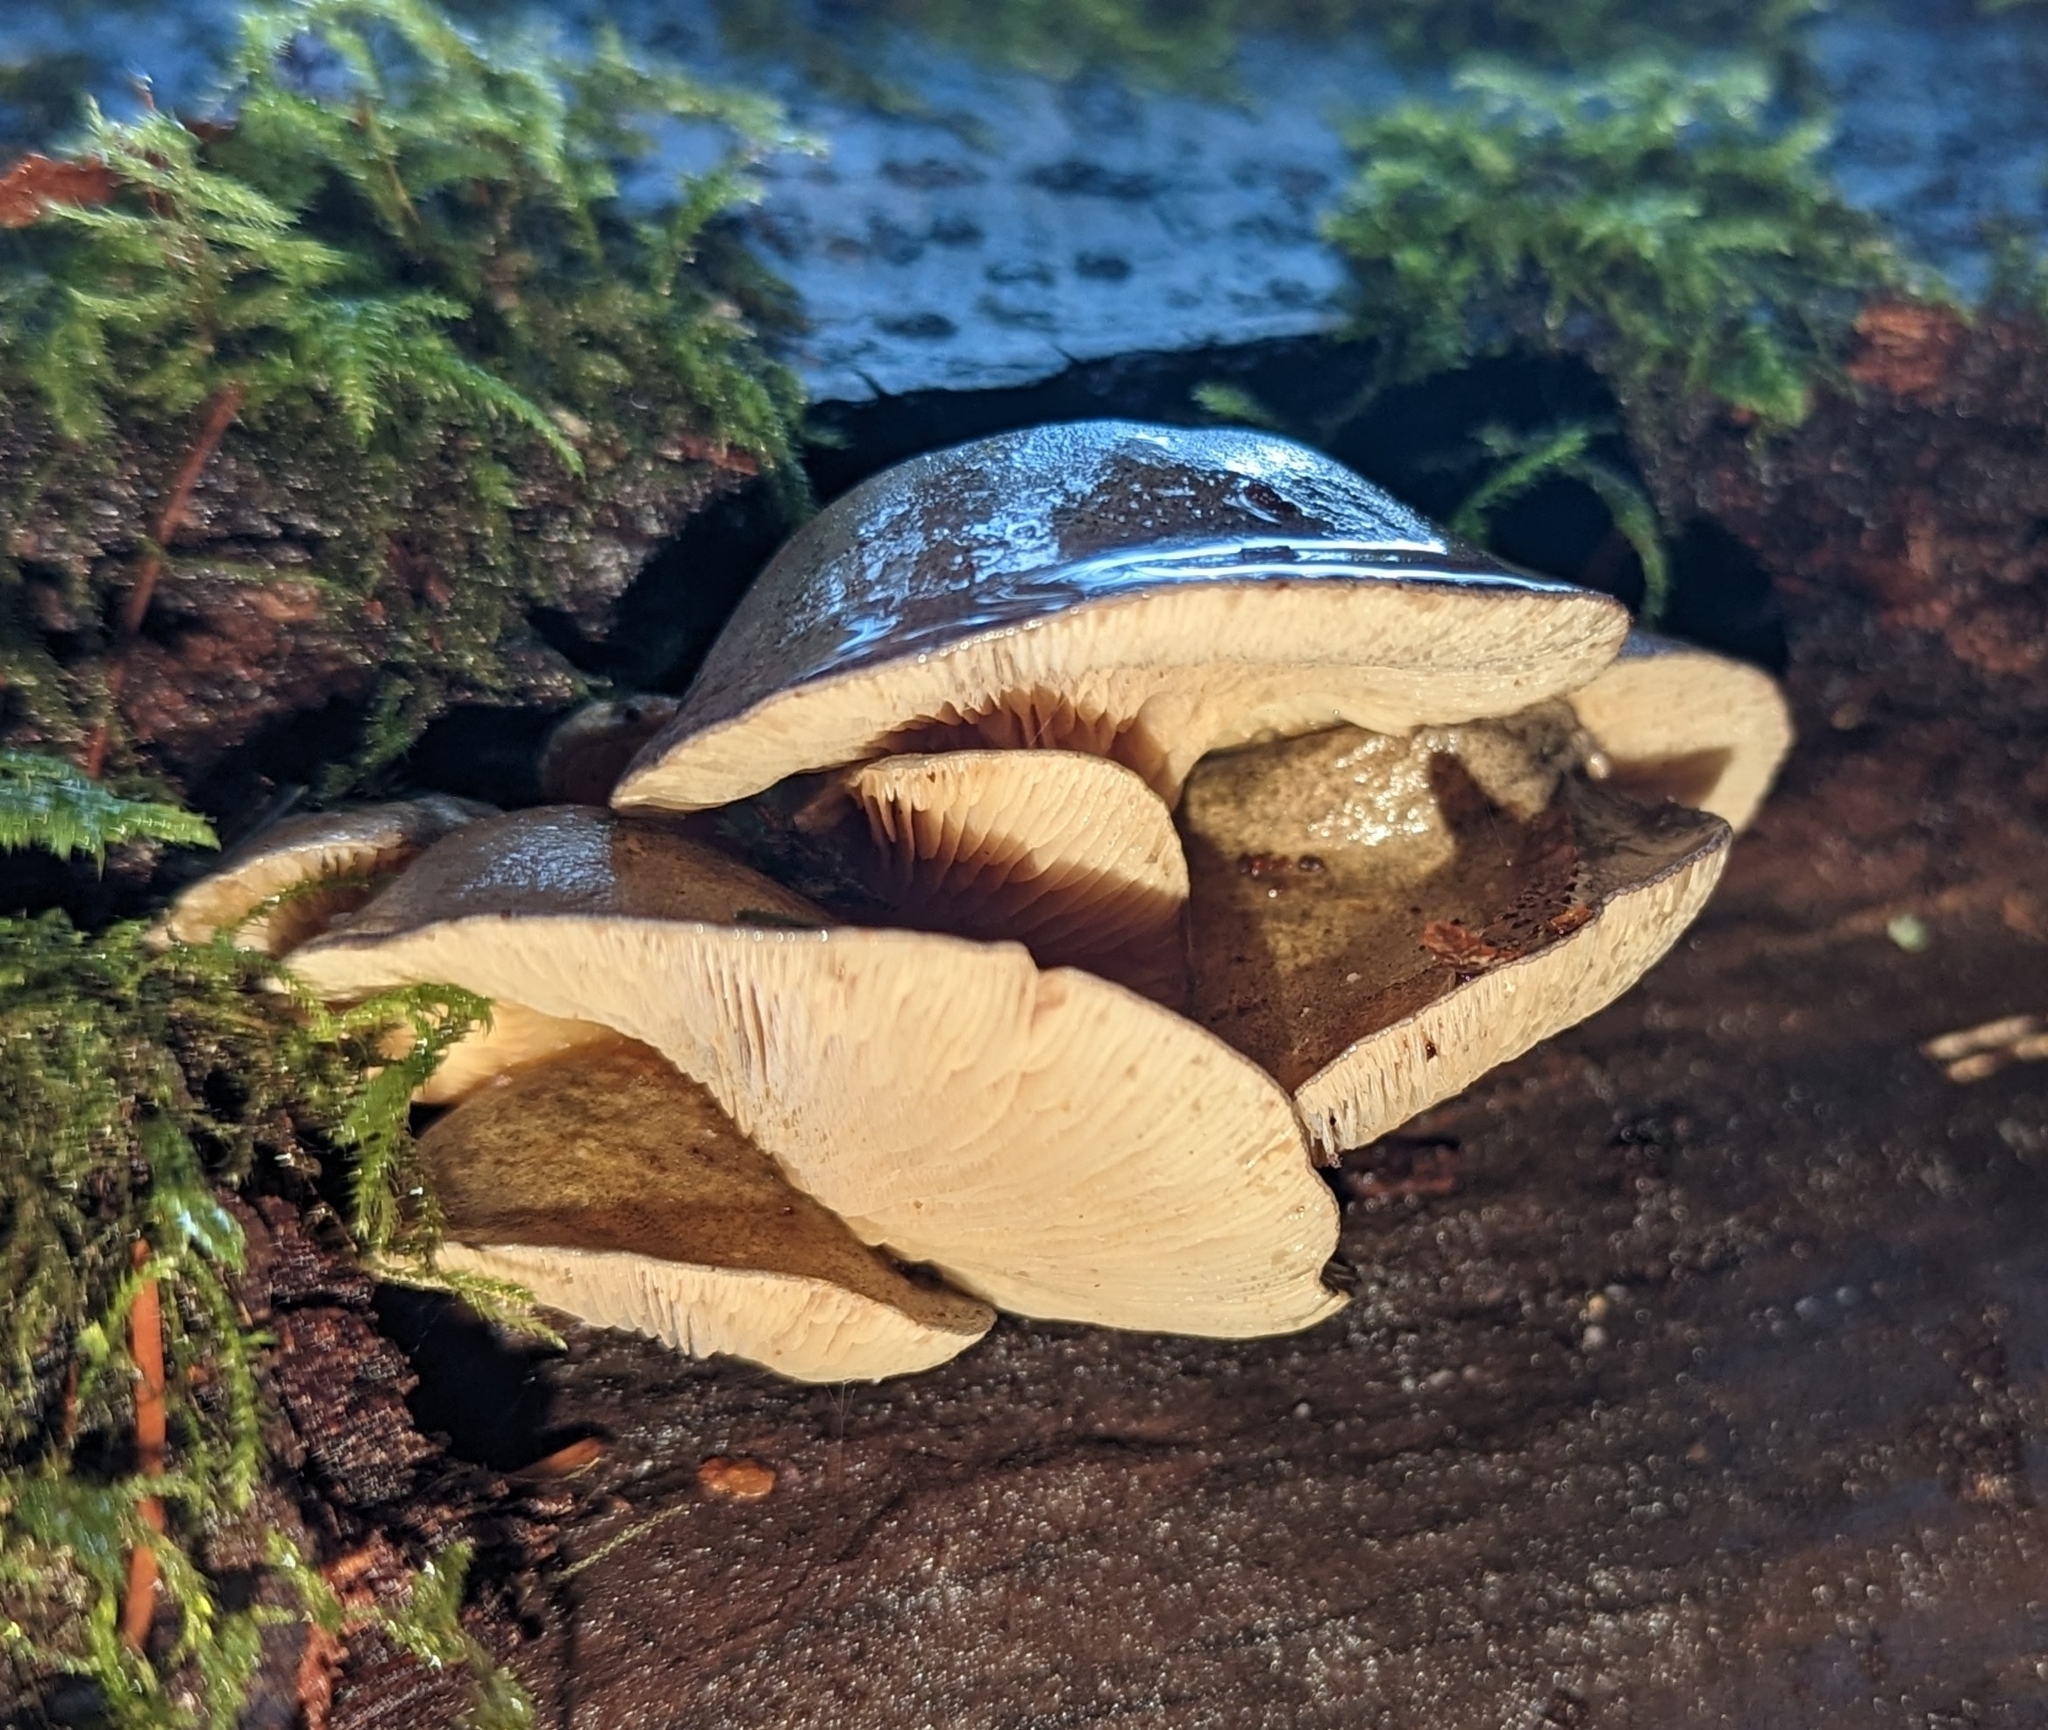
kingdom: Fungi
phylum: Basidiomycota
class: Agaricomycetes
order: Agaricales
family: Sarcomyxaceae
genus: Sarcomyxa
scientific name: Sarcomyxa serotina
